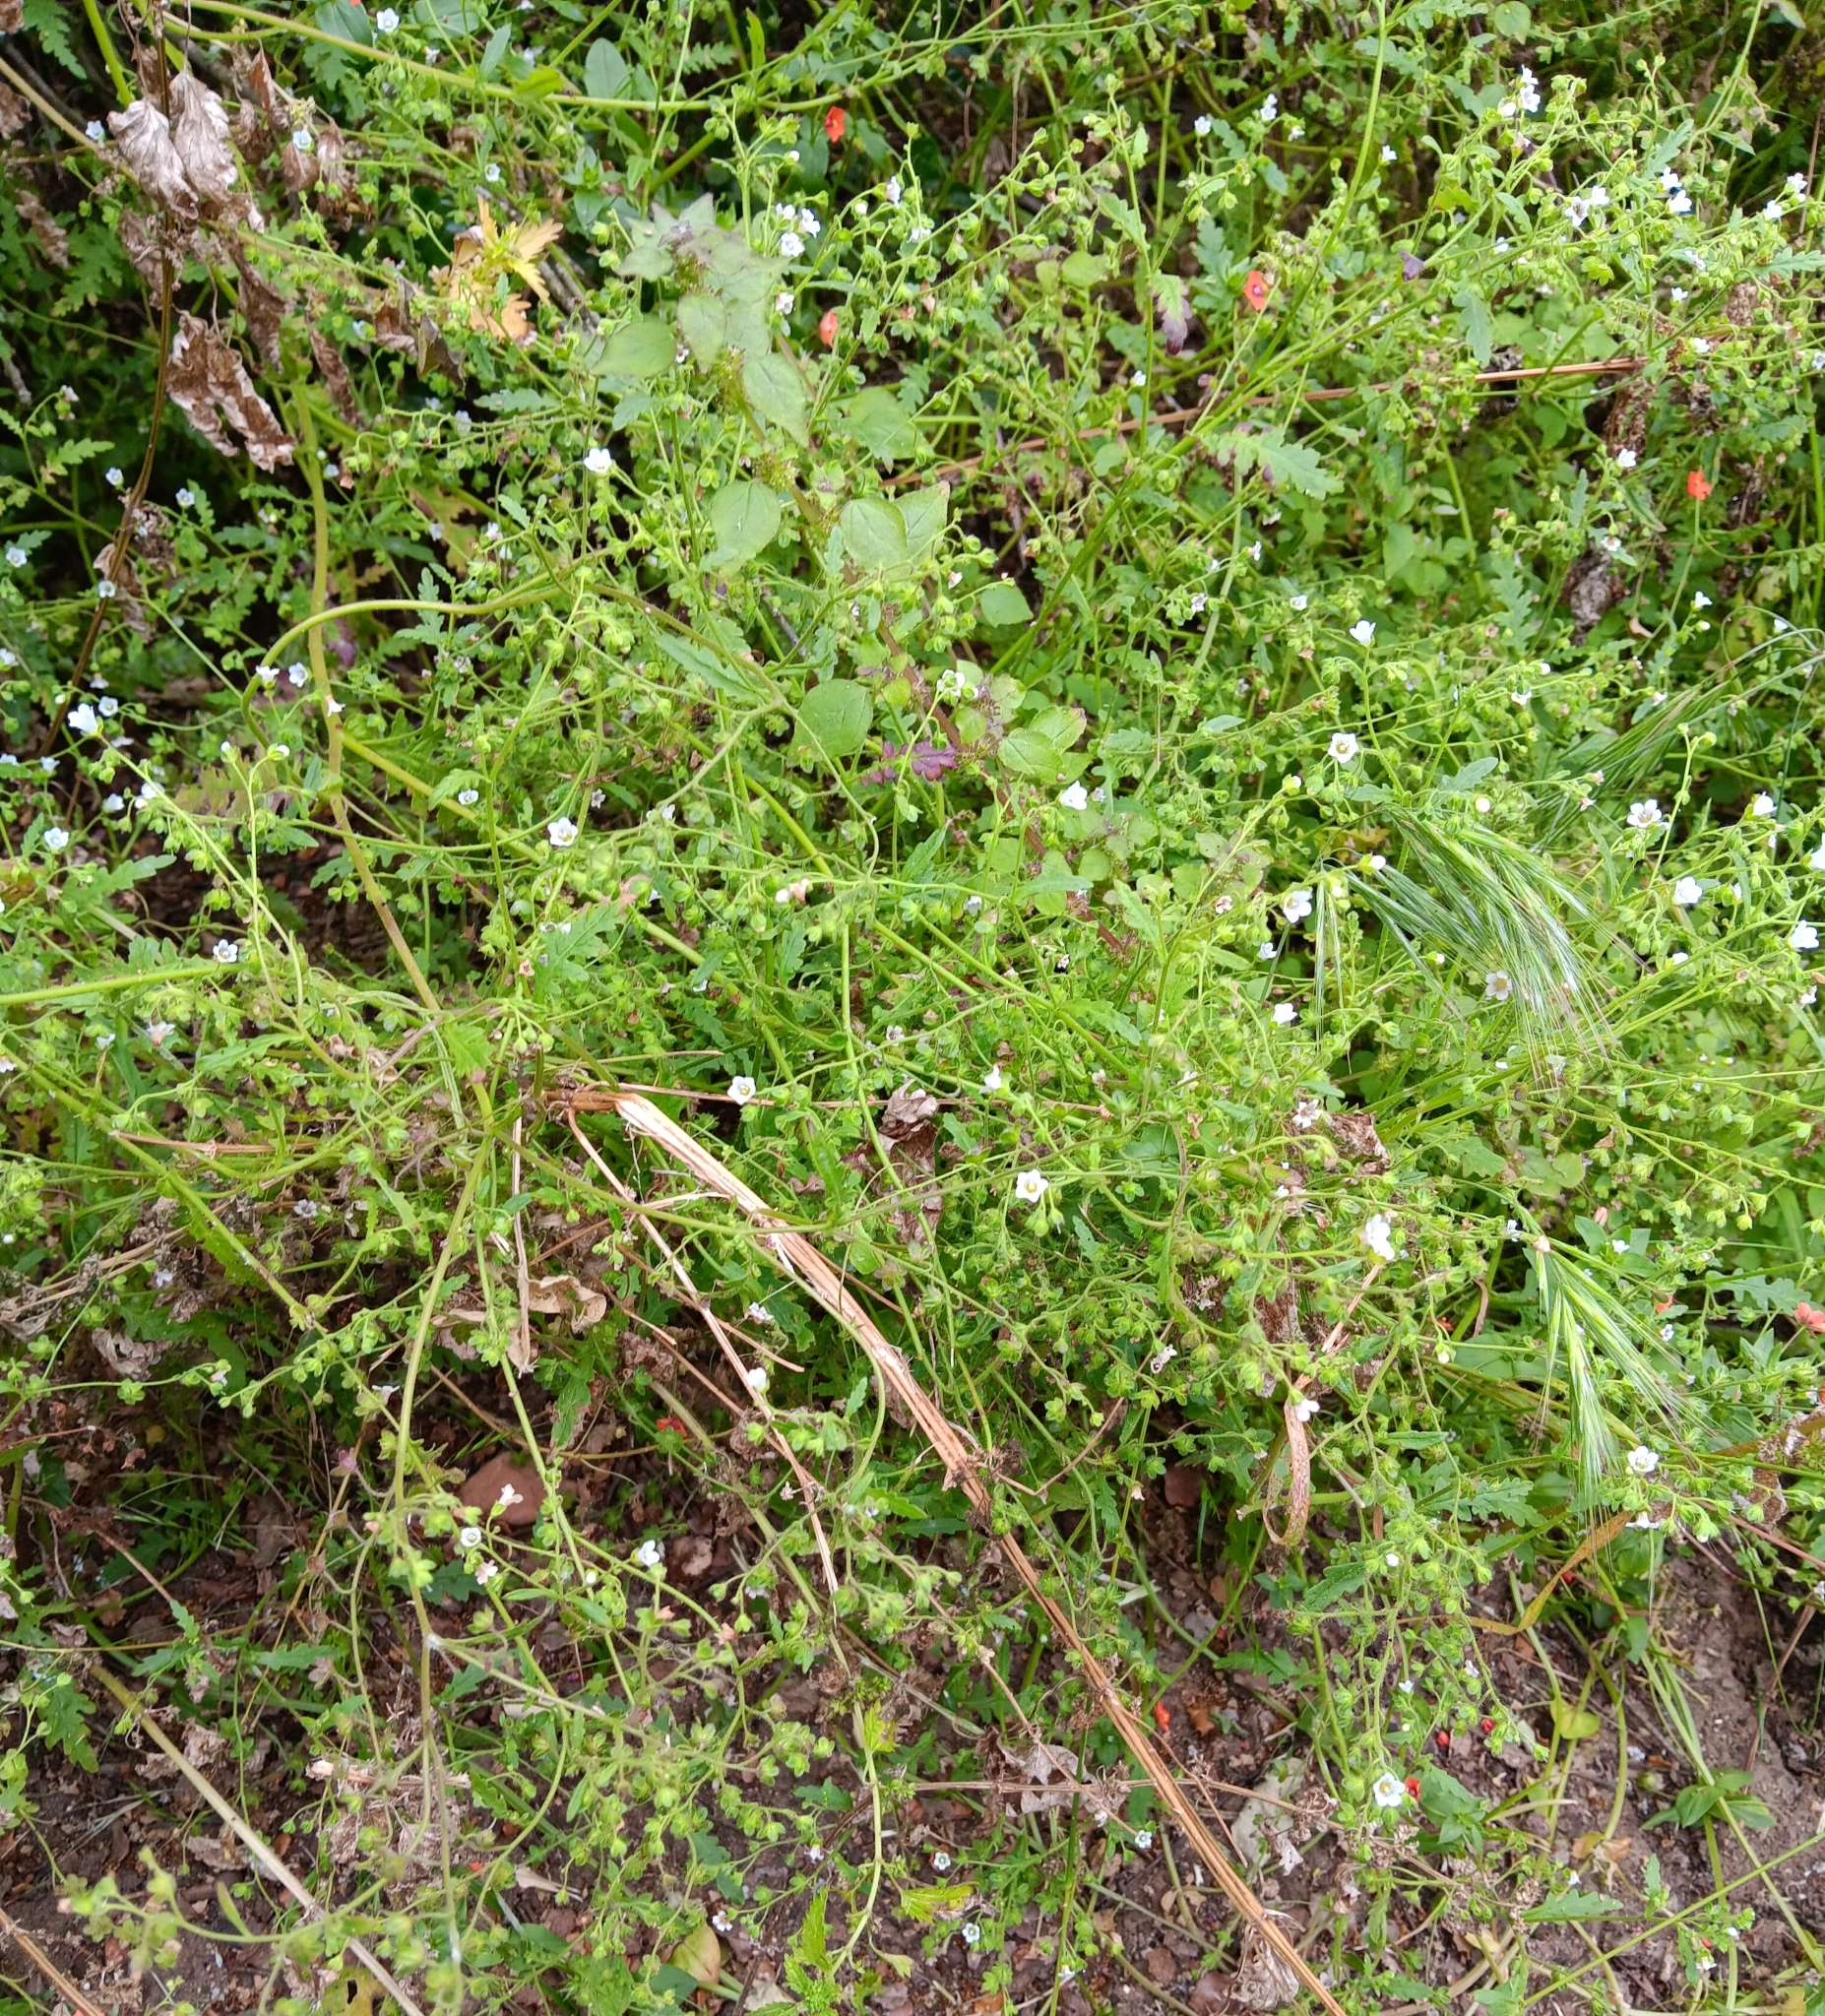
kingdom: Plantae
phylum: Tracheophyta
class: Magnoliopsida
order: Boraginales
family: Hydrophyllaceae
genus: Eucrypta
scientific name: Eucrypta chrysanthemifolia
